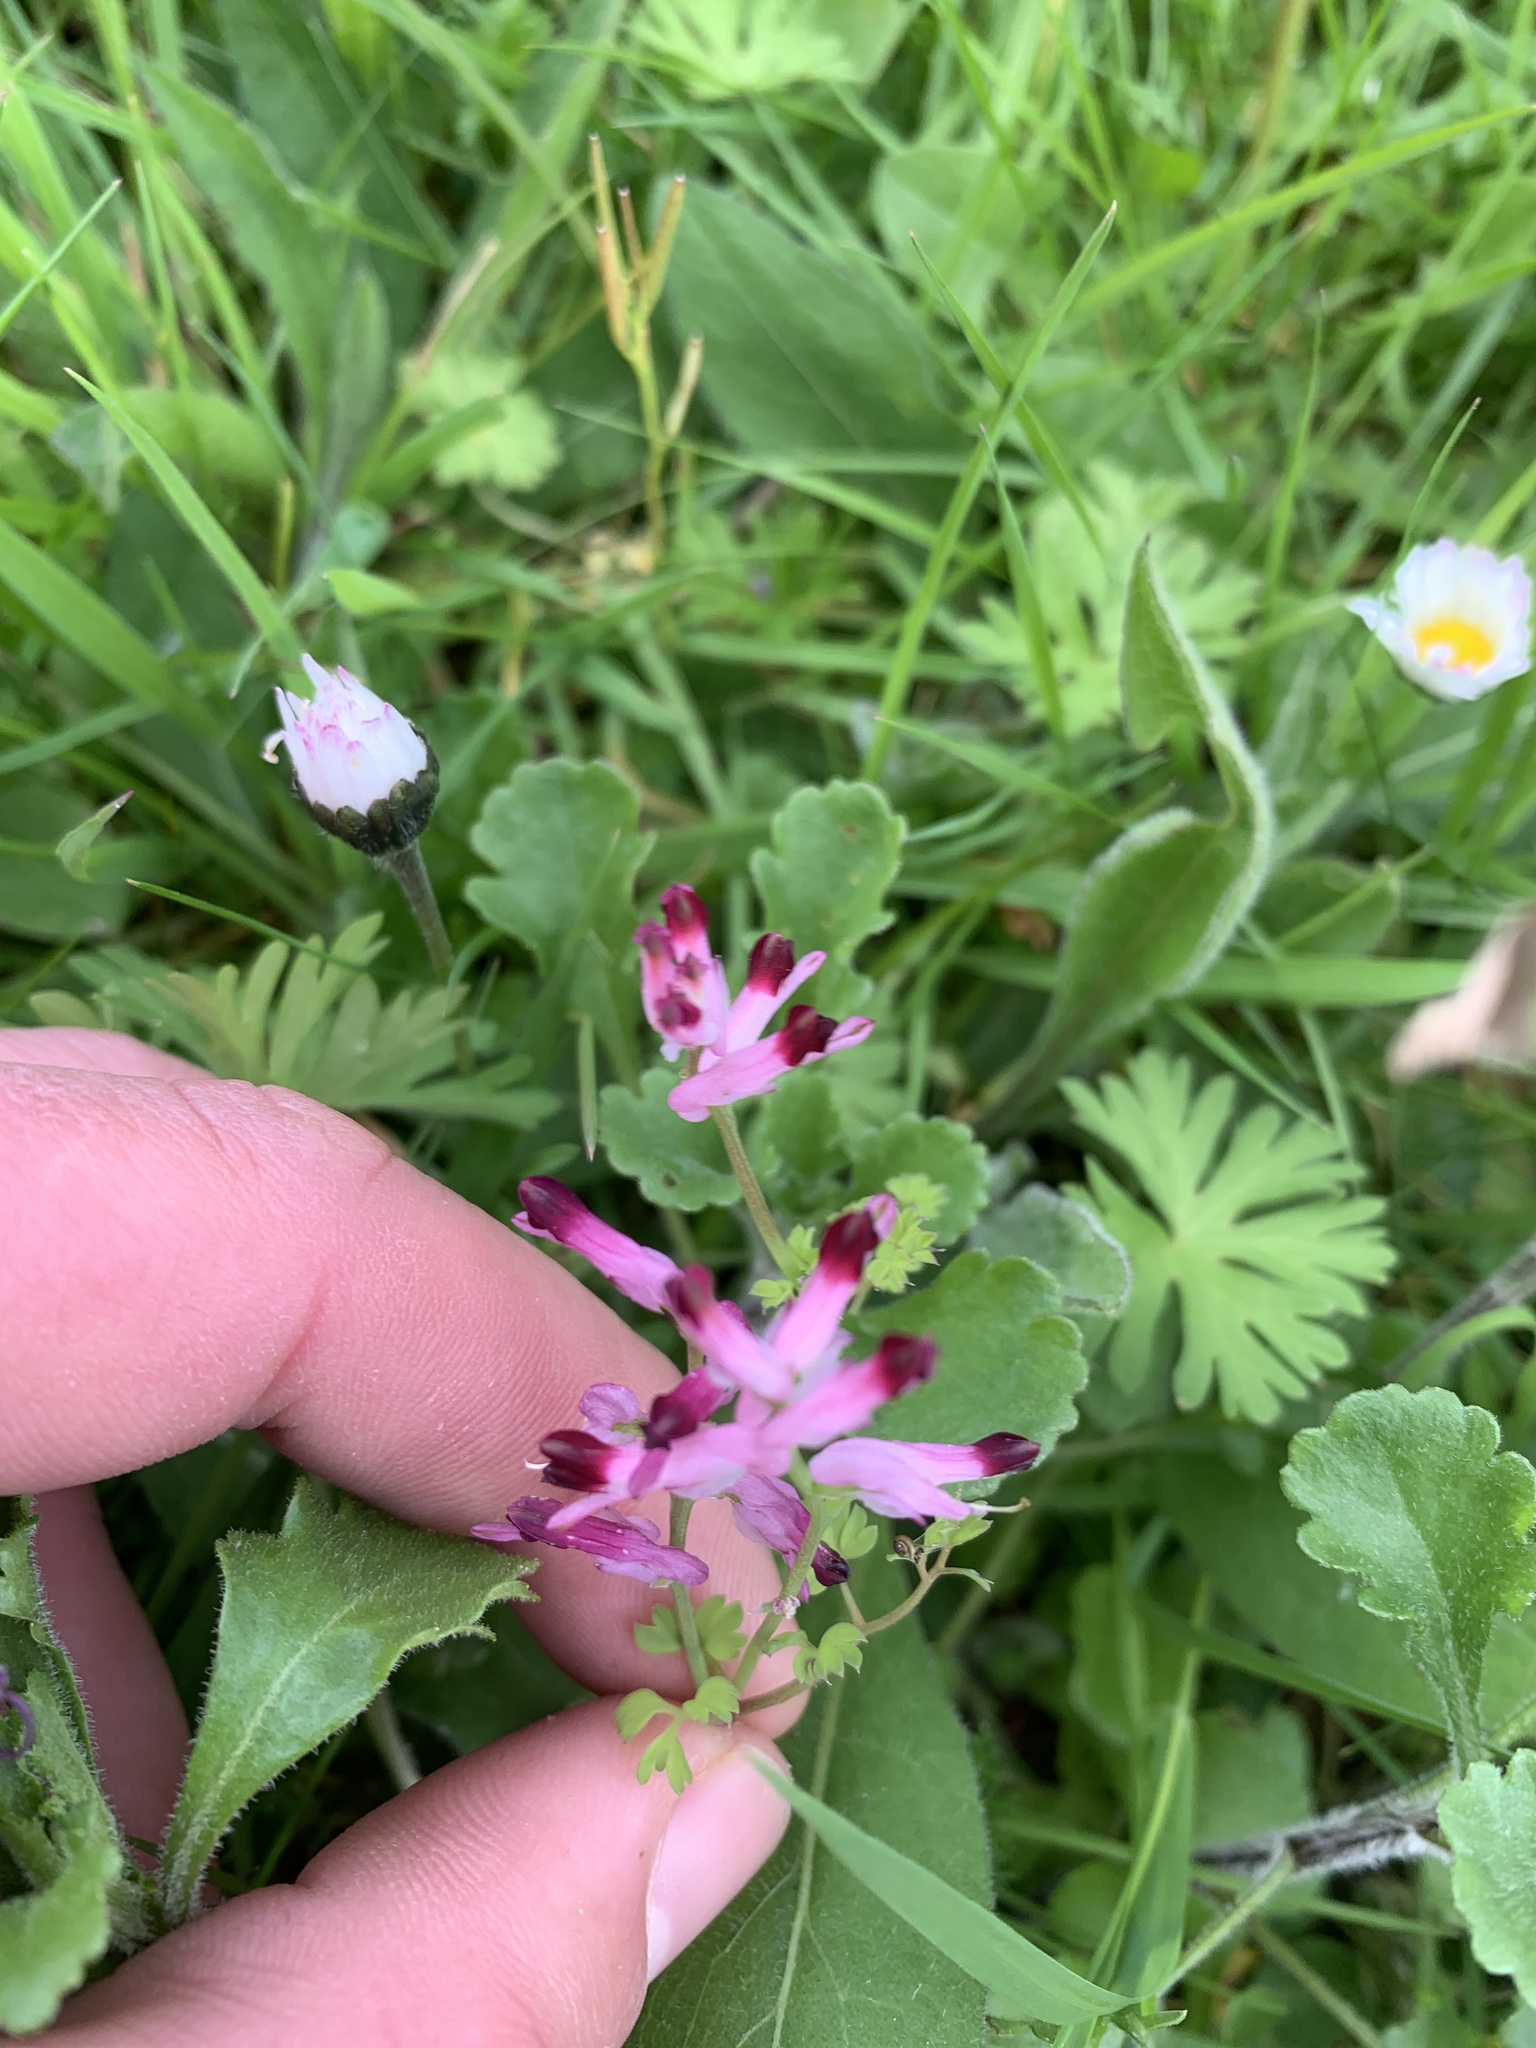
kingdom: Plantae
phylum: Tracheophyta
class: Magnoliopsida
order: Ranunculales
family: Papaveraceae
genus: Fumaria
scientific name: Fumaria muralis
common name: Common ramping-fumitory
